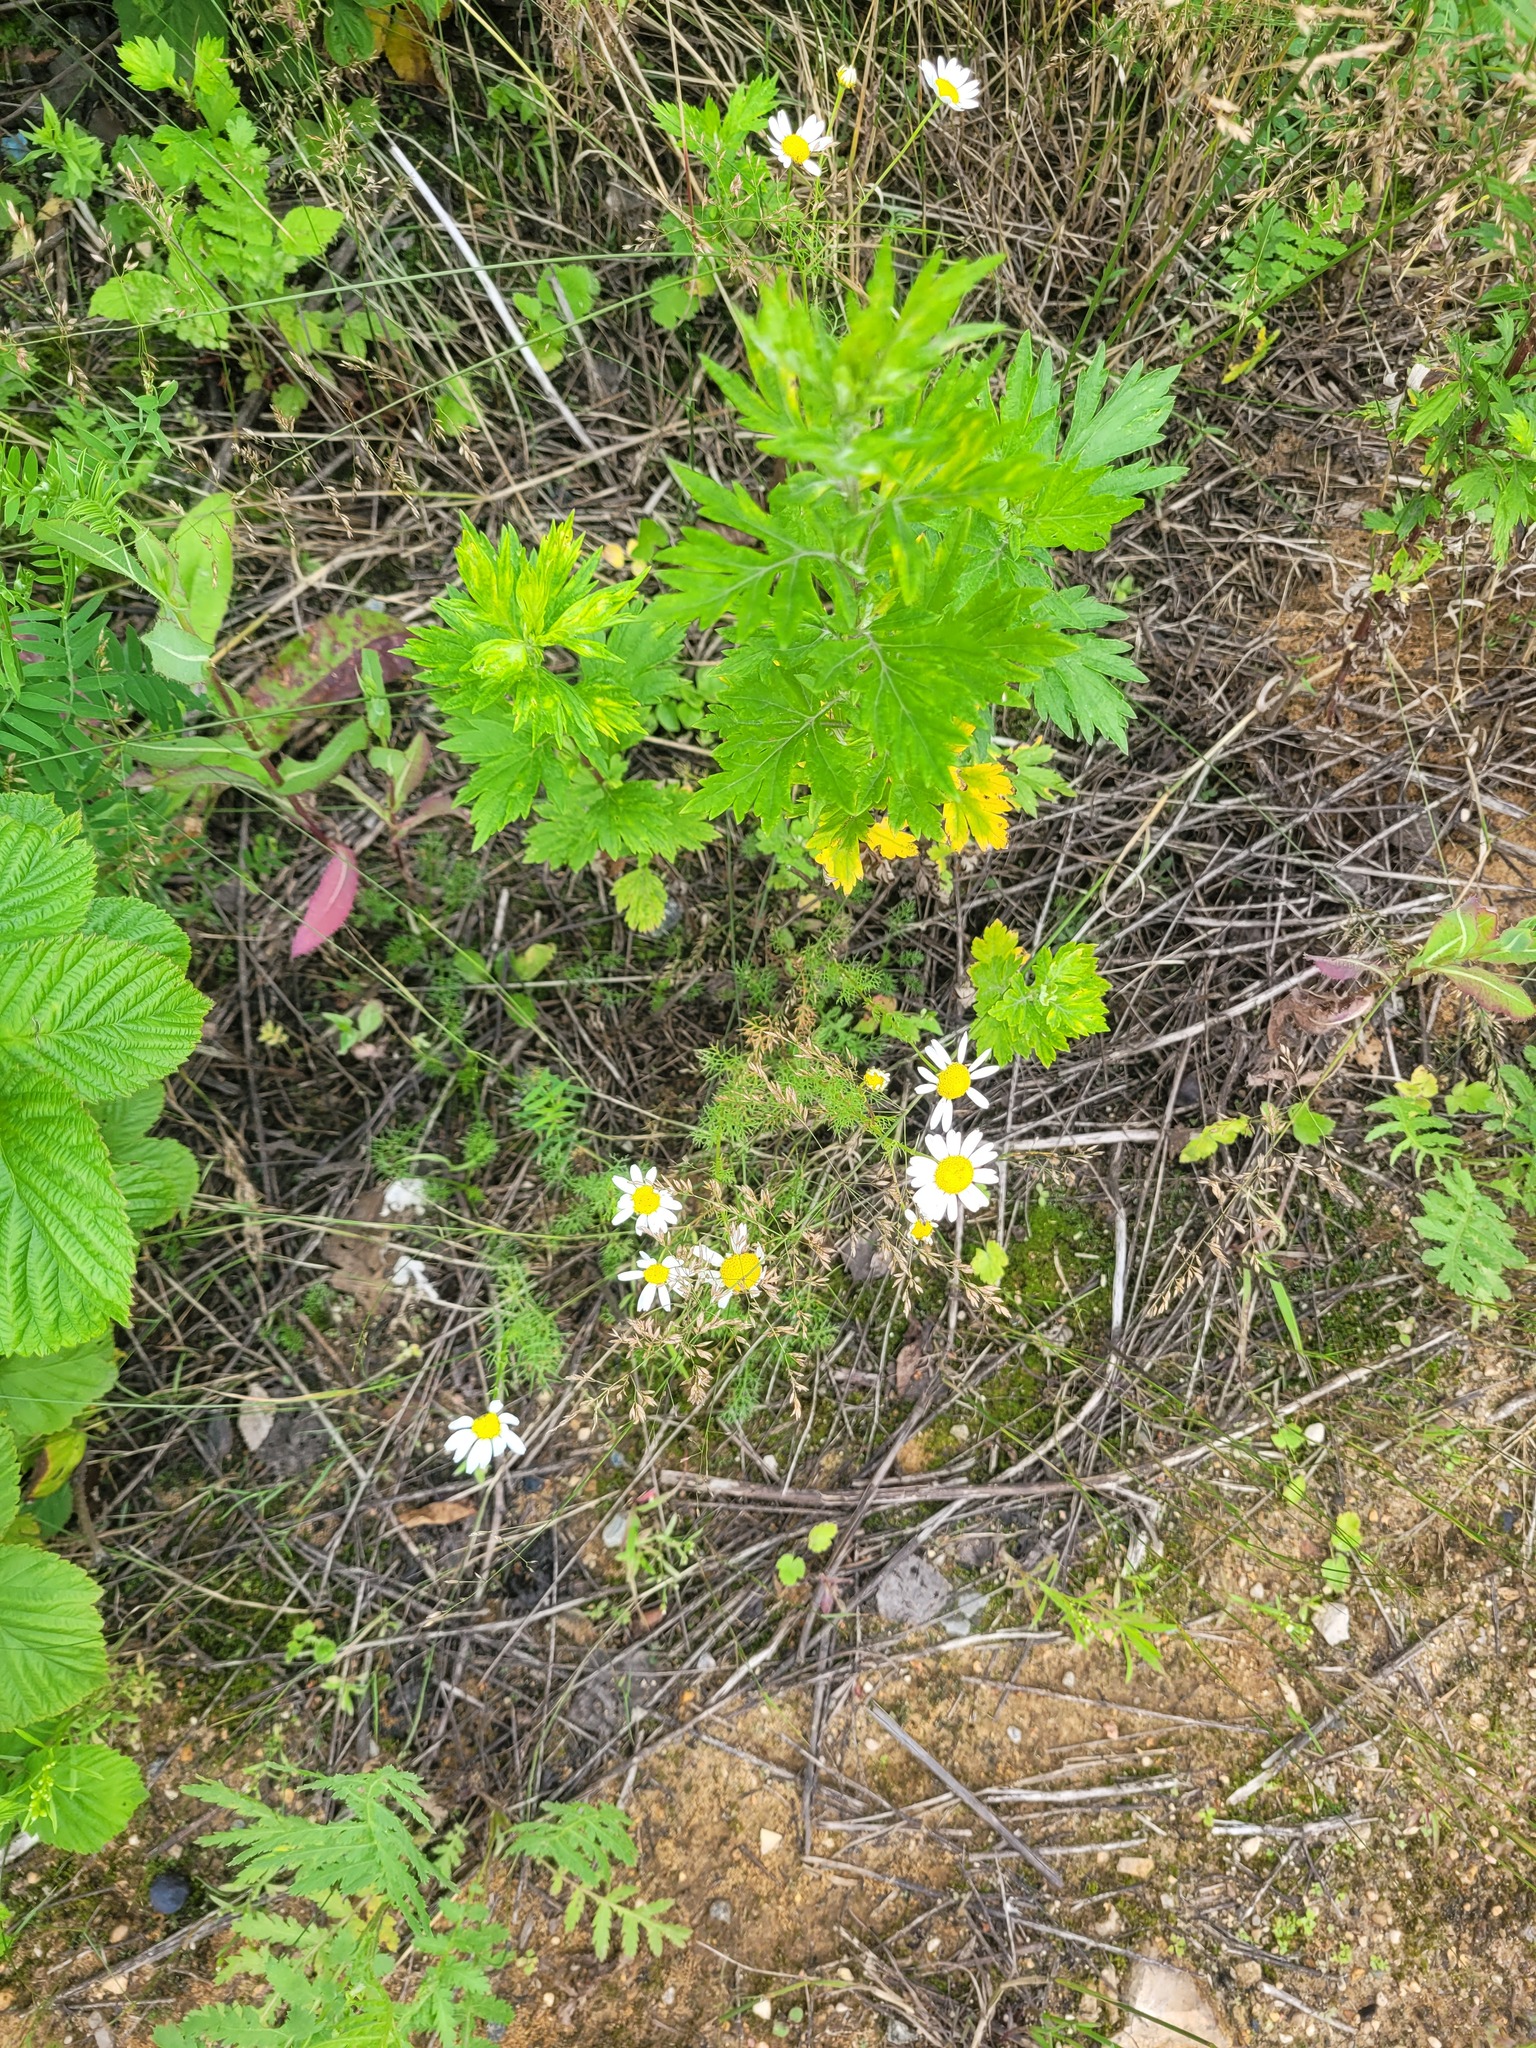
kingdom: Plantae
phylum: Tracheophyta
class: Magnoliopsida
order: Asterales
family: Asteraceae
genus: Tripleurospermum
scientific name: Tripleurospermum inodorum
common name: Scentless mayweed
